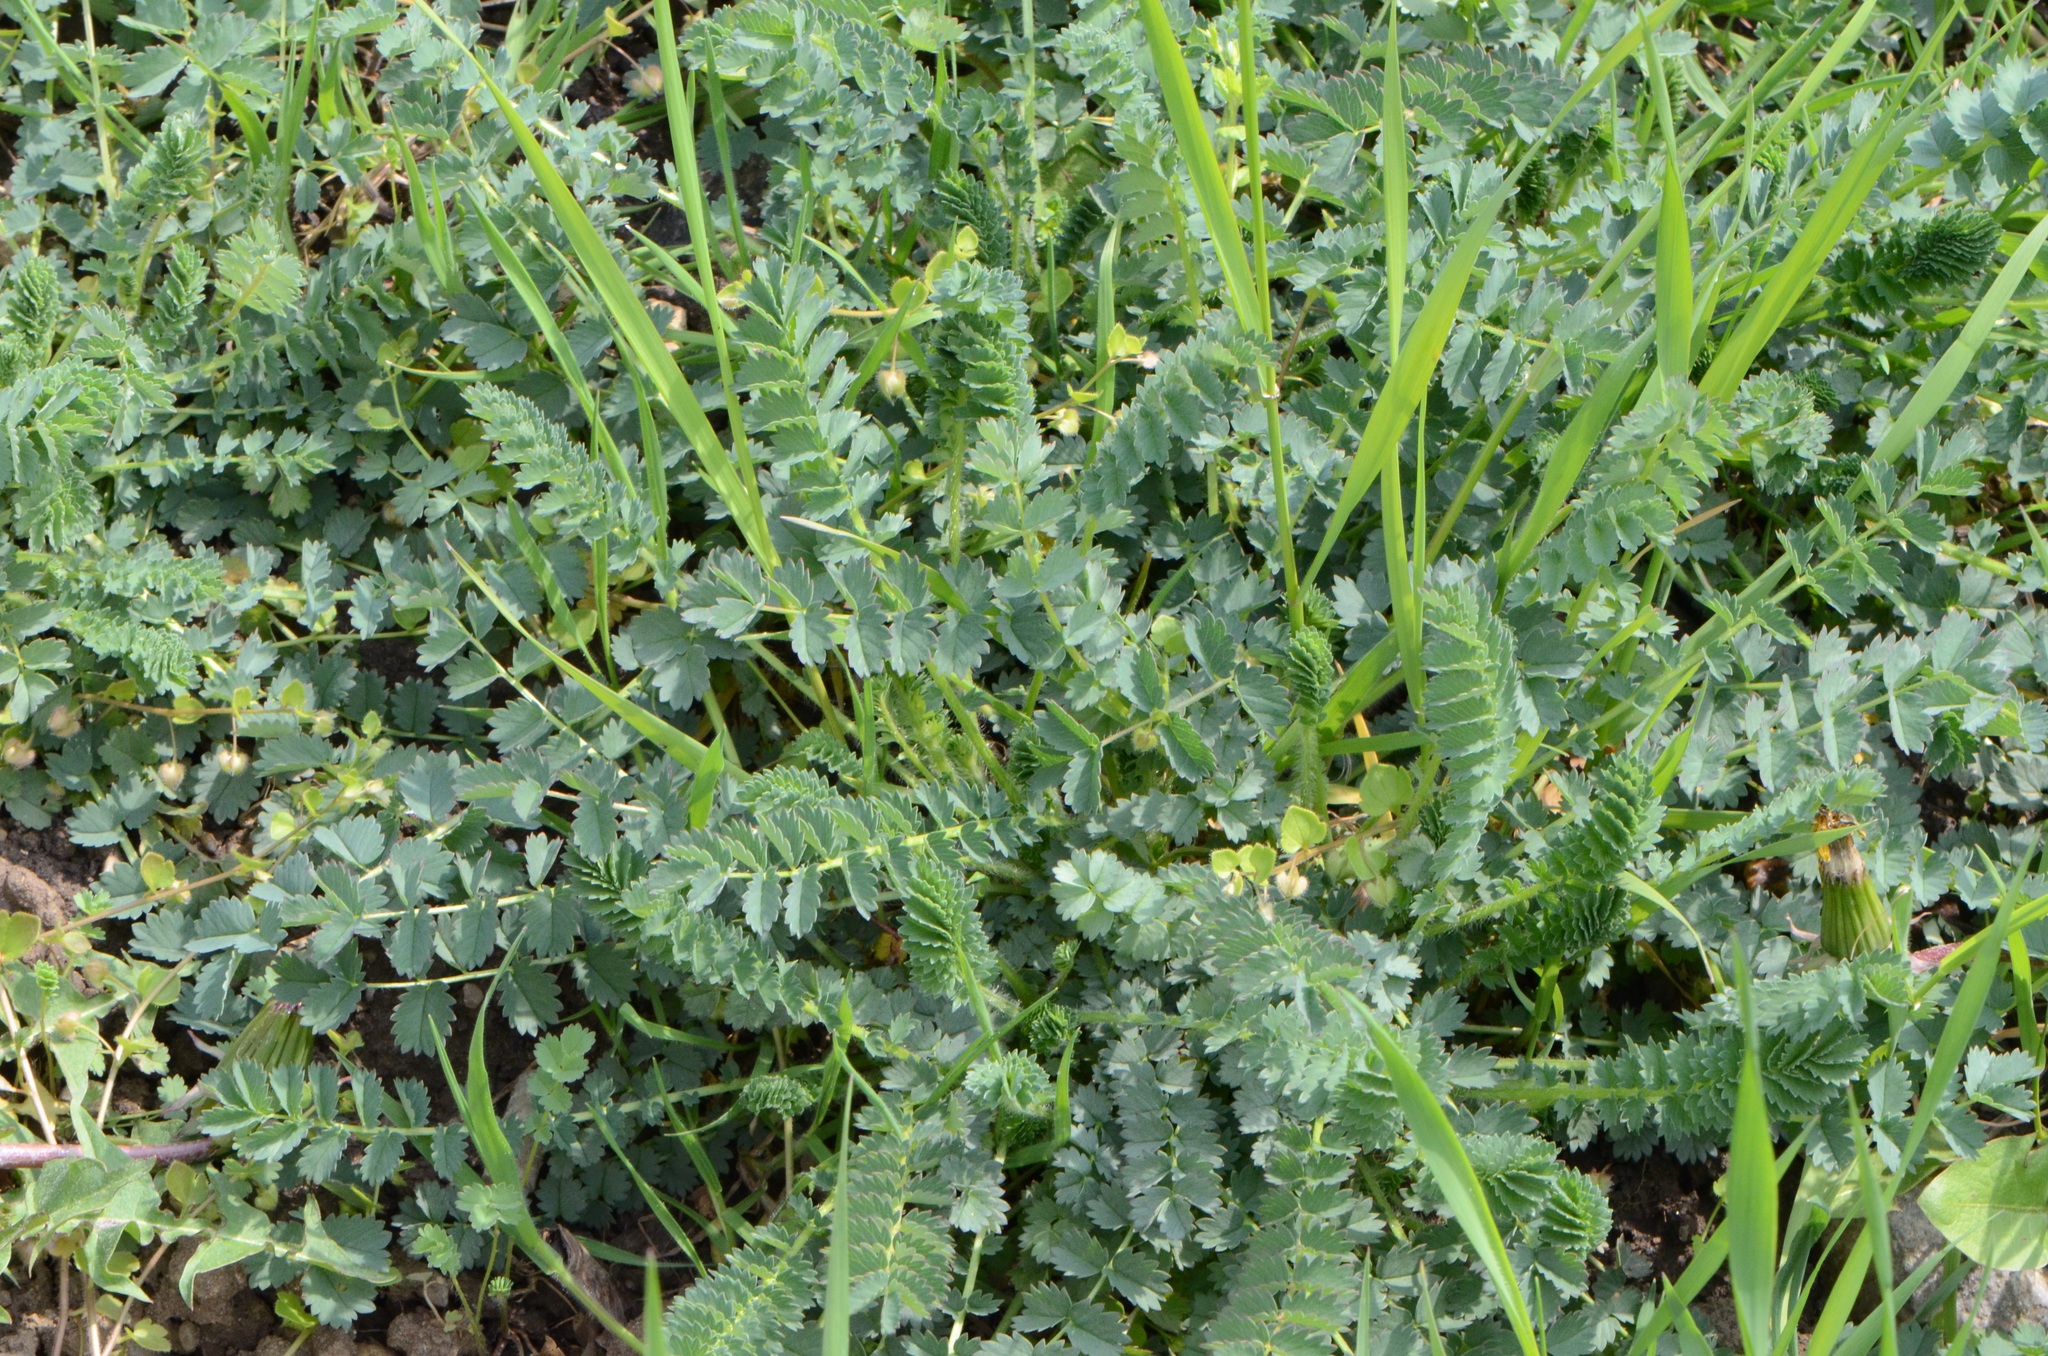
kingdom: Plantae
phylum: Tracheophyta
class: Magnoliopsida
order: Rosales
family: Rosaceae
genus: Poterium
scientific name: Poterium sanguisorba
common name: Salad burnet
